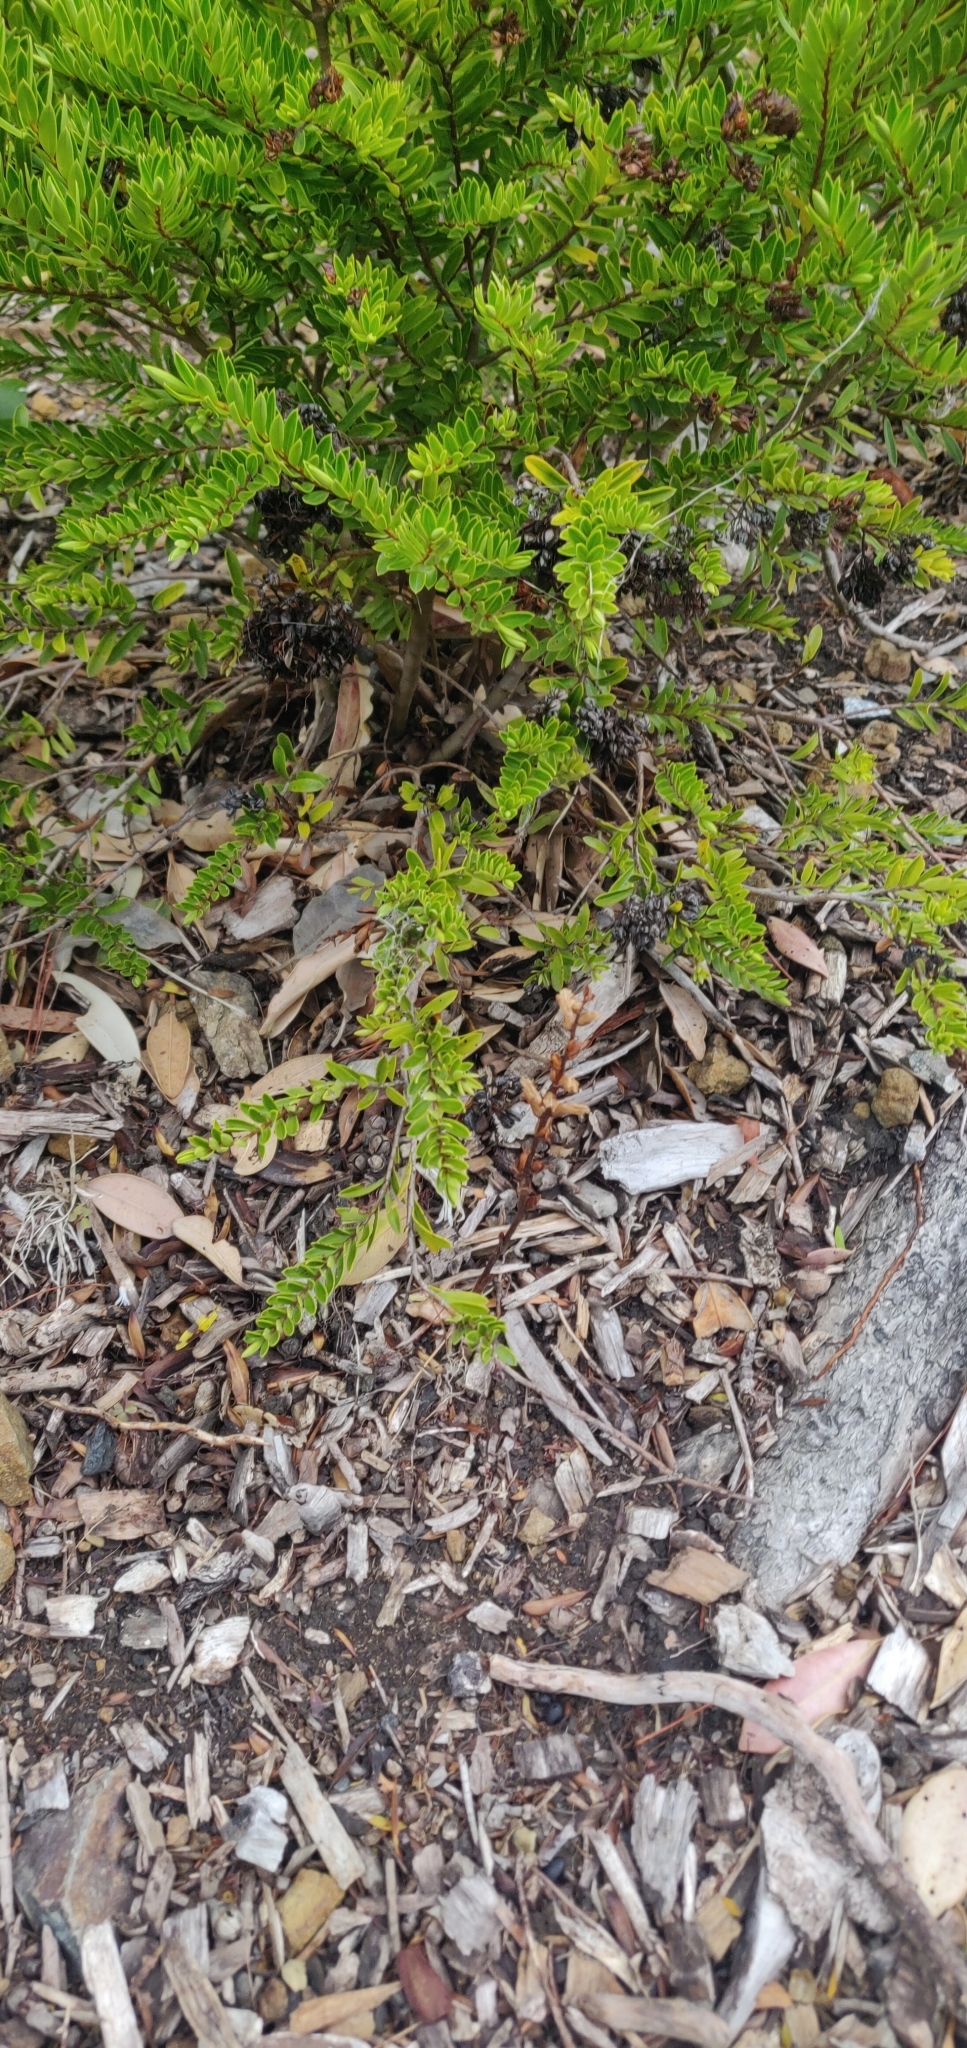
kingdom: Plantae
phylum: Tracheophyta
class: Magnoliopsida
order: Lamiales
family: Orobanchaceae
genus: Orobanche
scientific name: Orobanche minor
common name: Common broomrape
